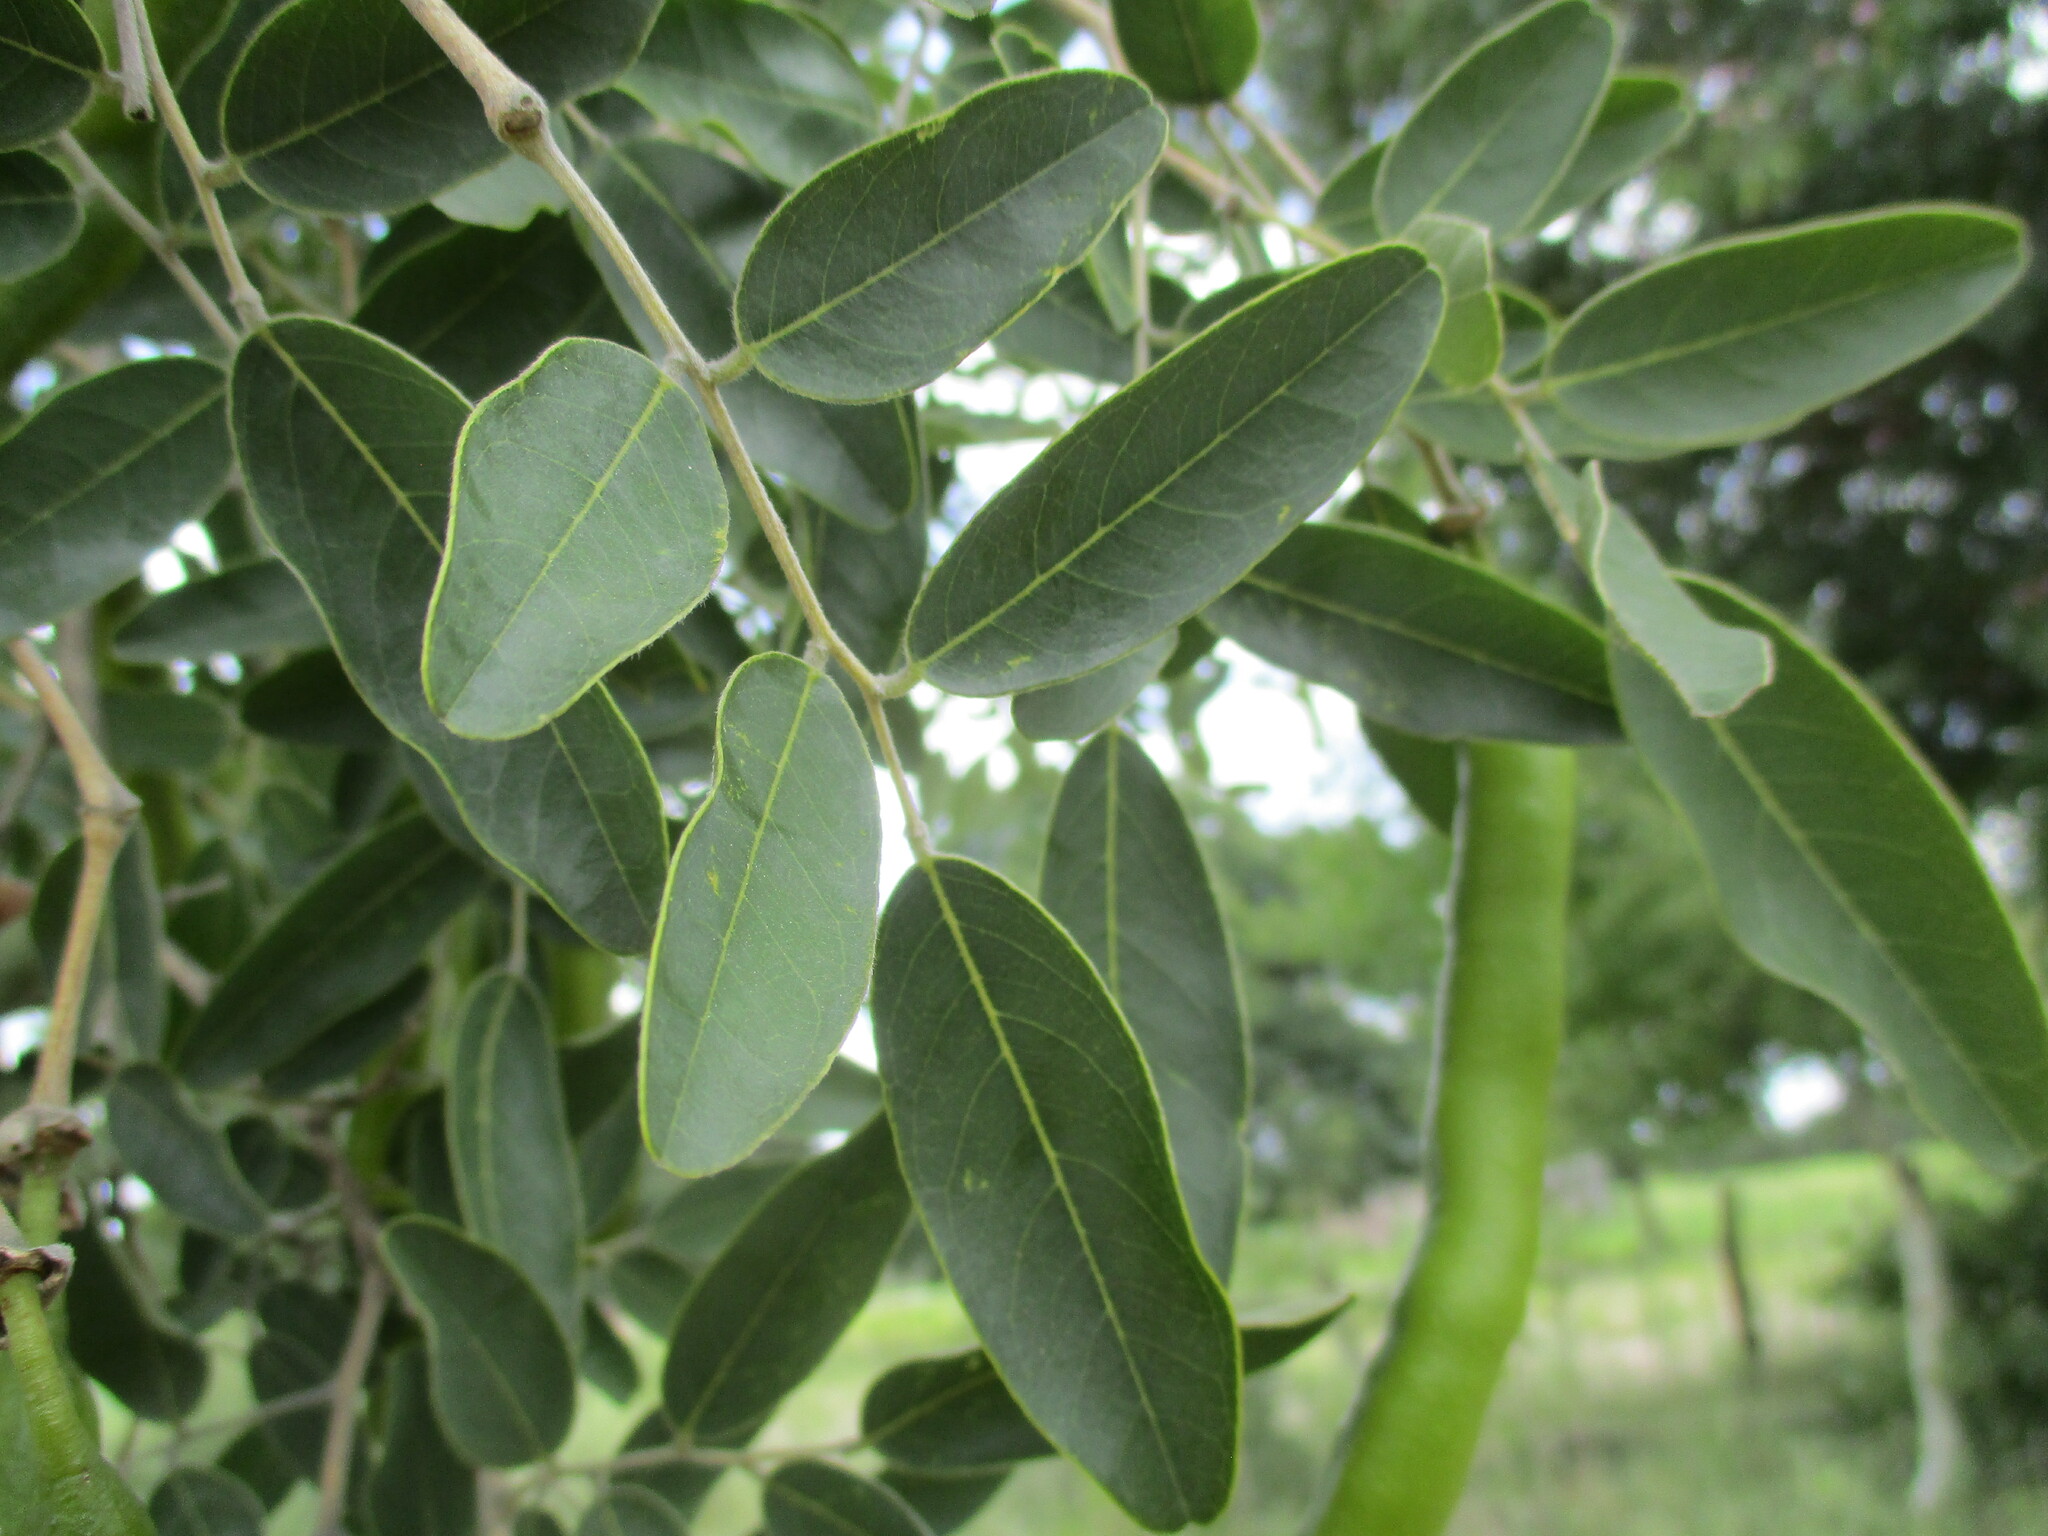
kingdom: Plantae
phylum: Tracheophyta
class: Magnoliopsida
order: Fabales
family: Fabaceae
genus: Bobgunnia
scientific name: Bobgunnia madagascariensis
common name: Snake bean plant
